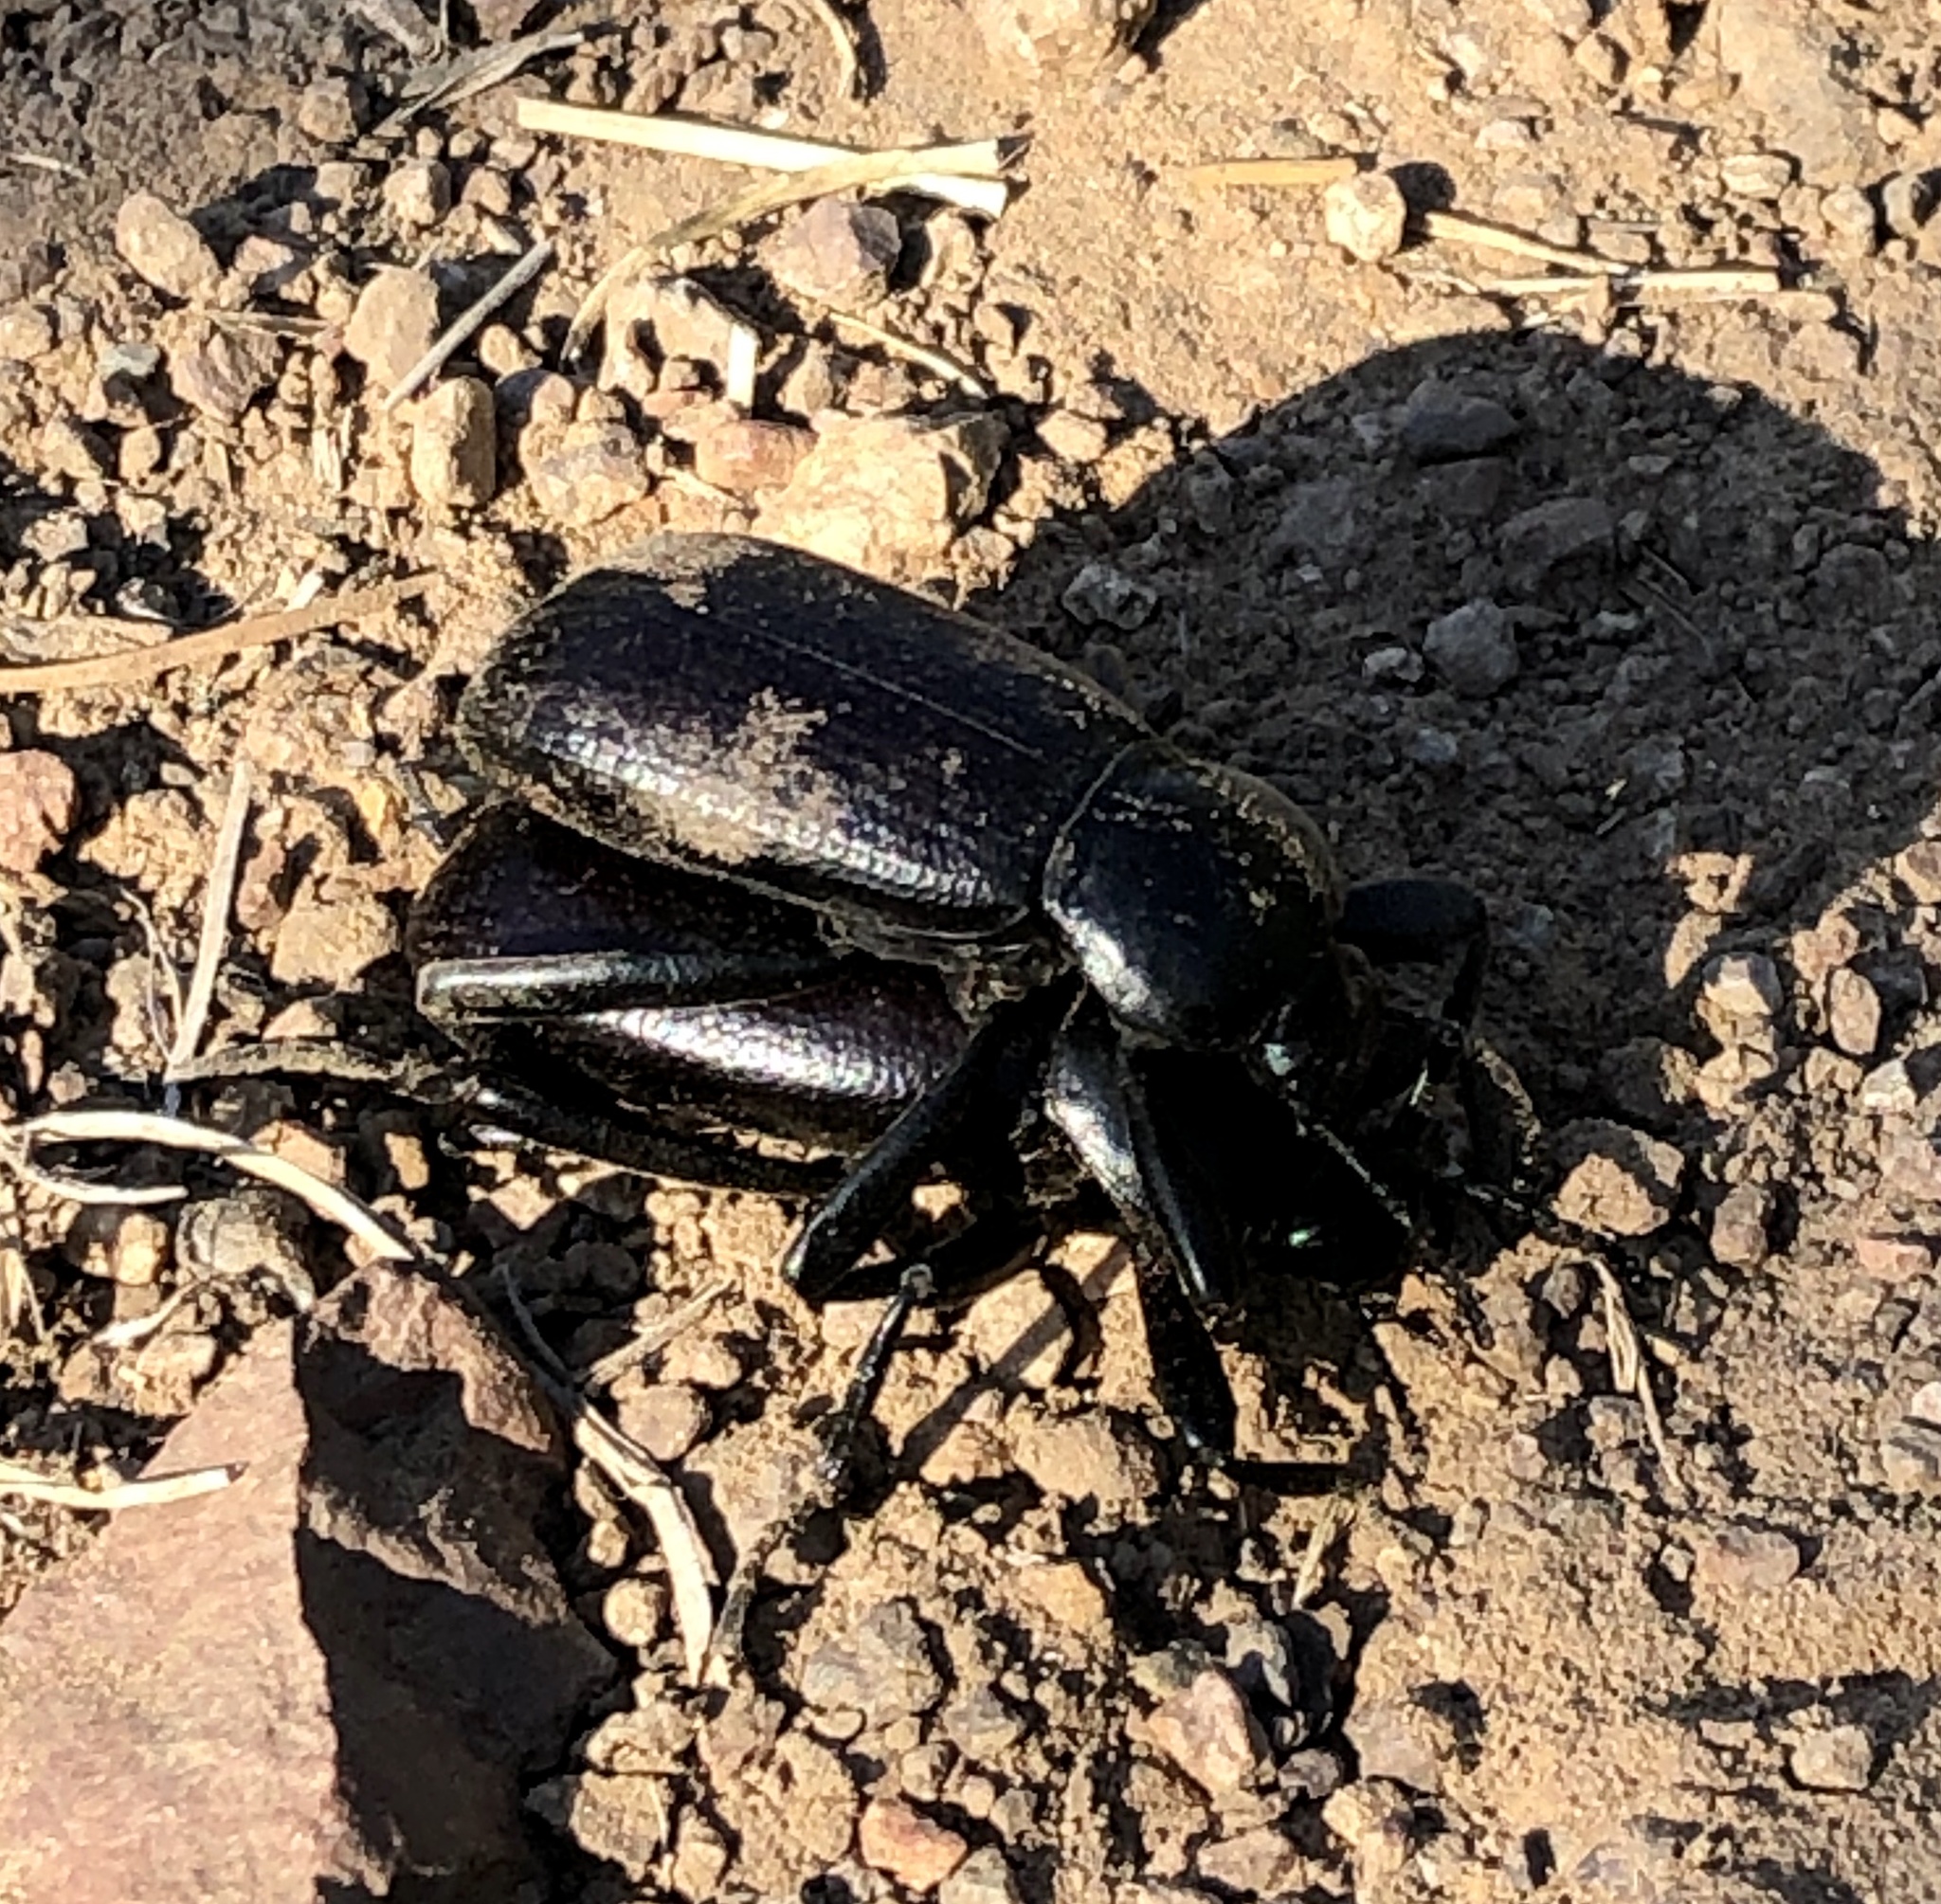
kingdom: Animalia
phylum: Arthropoda
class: Insecta
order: Coleoptera
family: Tenebrionidae
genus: Eleodes
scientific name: Eleodes obscura
